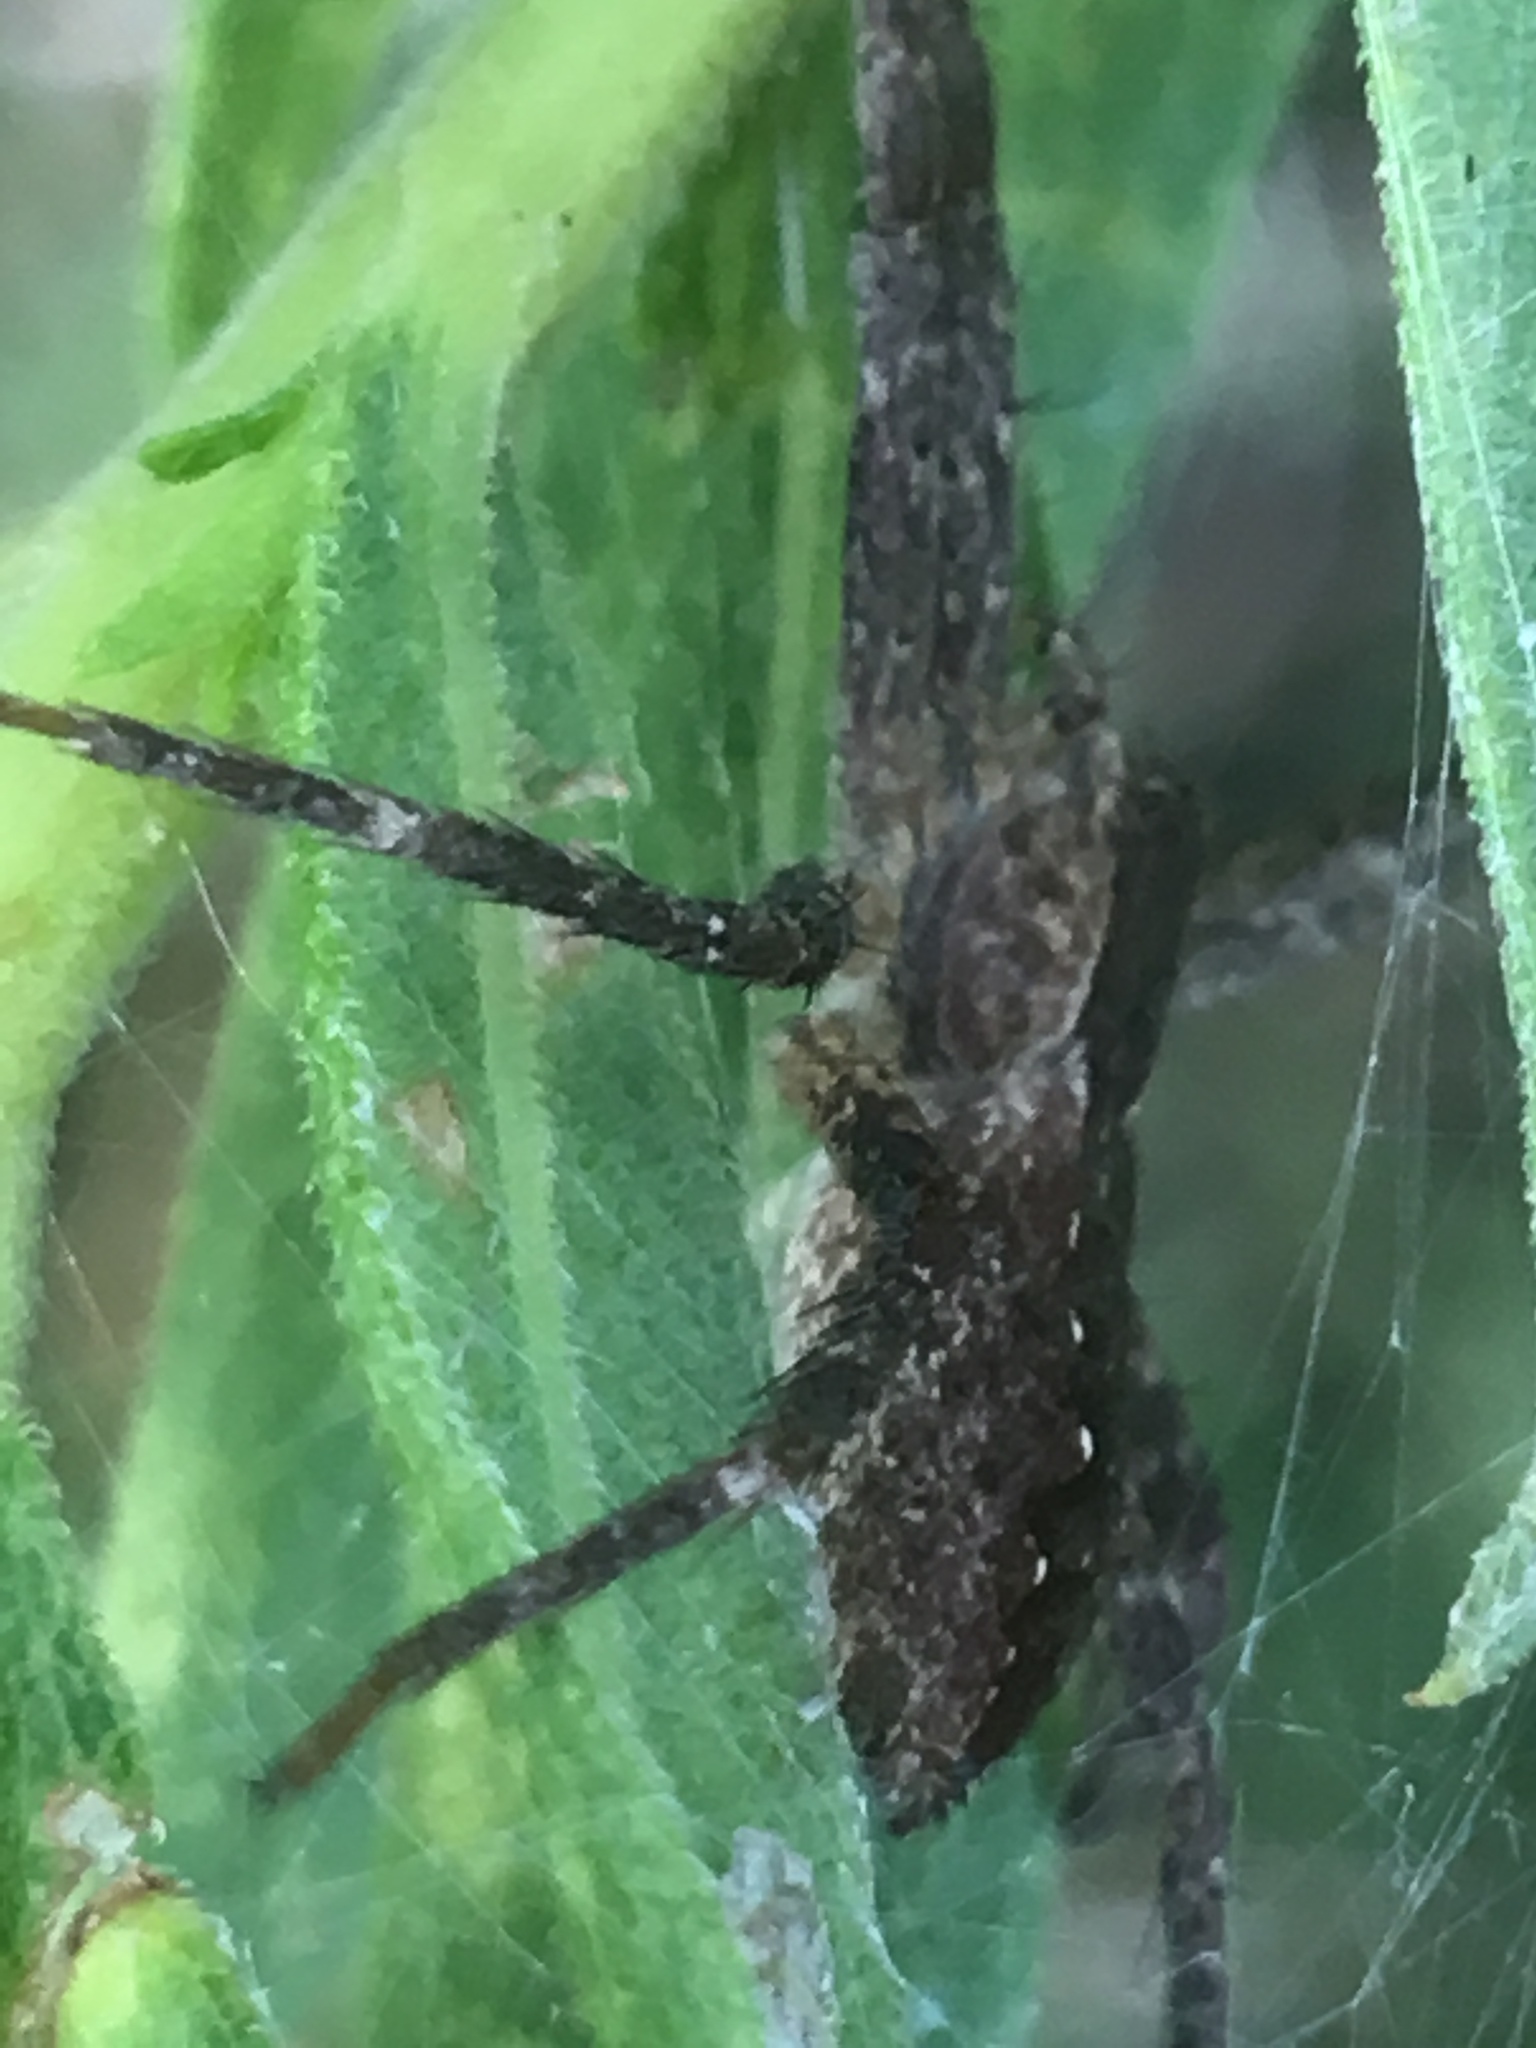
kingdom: Animalia
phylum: Arthropoda
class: Arachnida
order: Araneae
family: Pisauridae
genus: Pisaurina
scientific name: Pisaurina mira
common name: American nursery web spider
